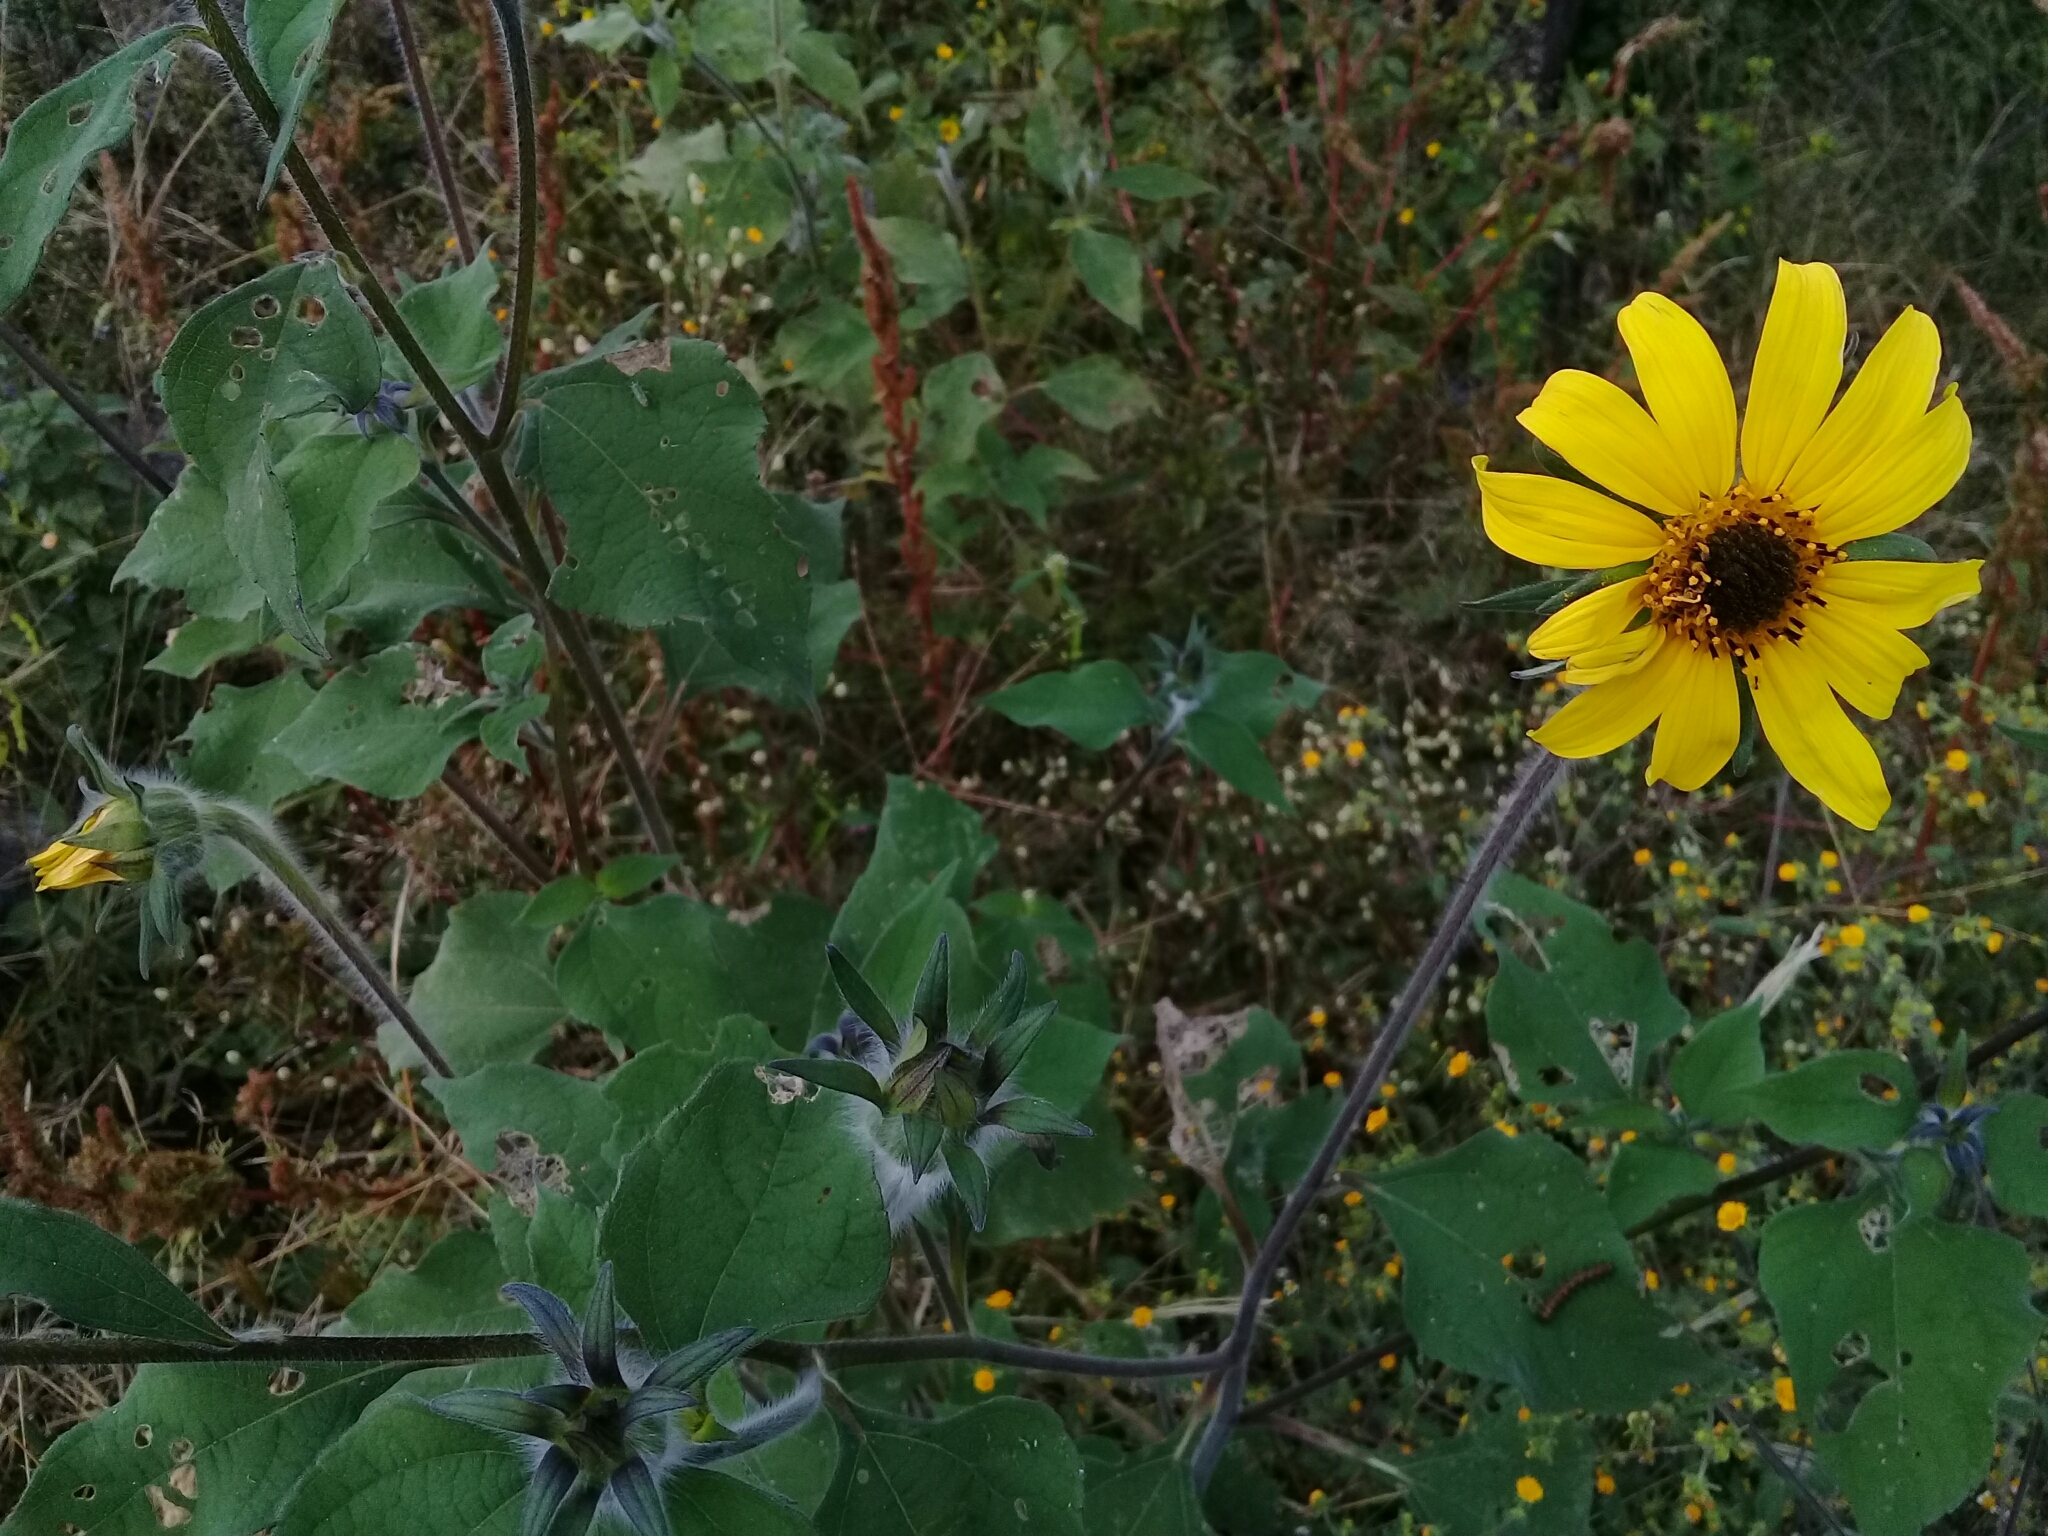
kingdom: Plantae
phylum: Tracheophyta
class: Magnoliopsida
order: Asterales
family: Asteraceae
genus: Tithonia
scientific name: Tithonia tubaeformis
